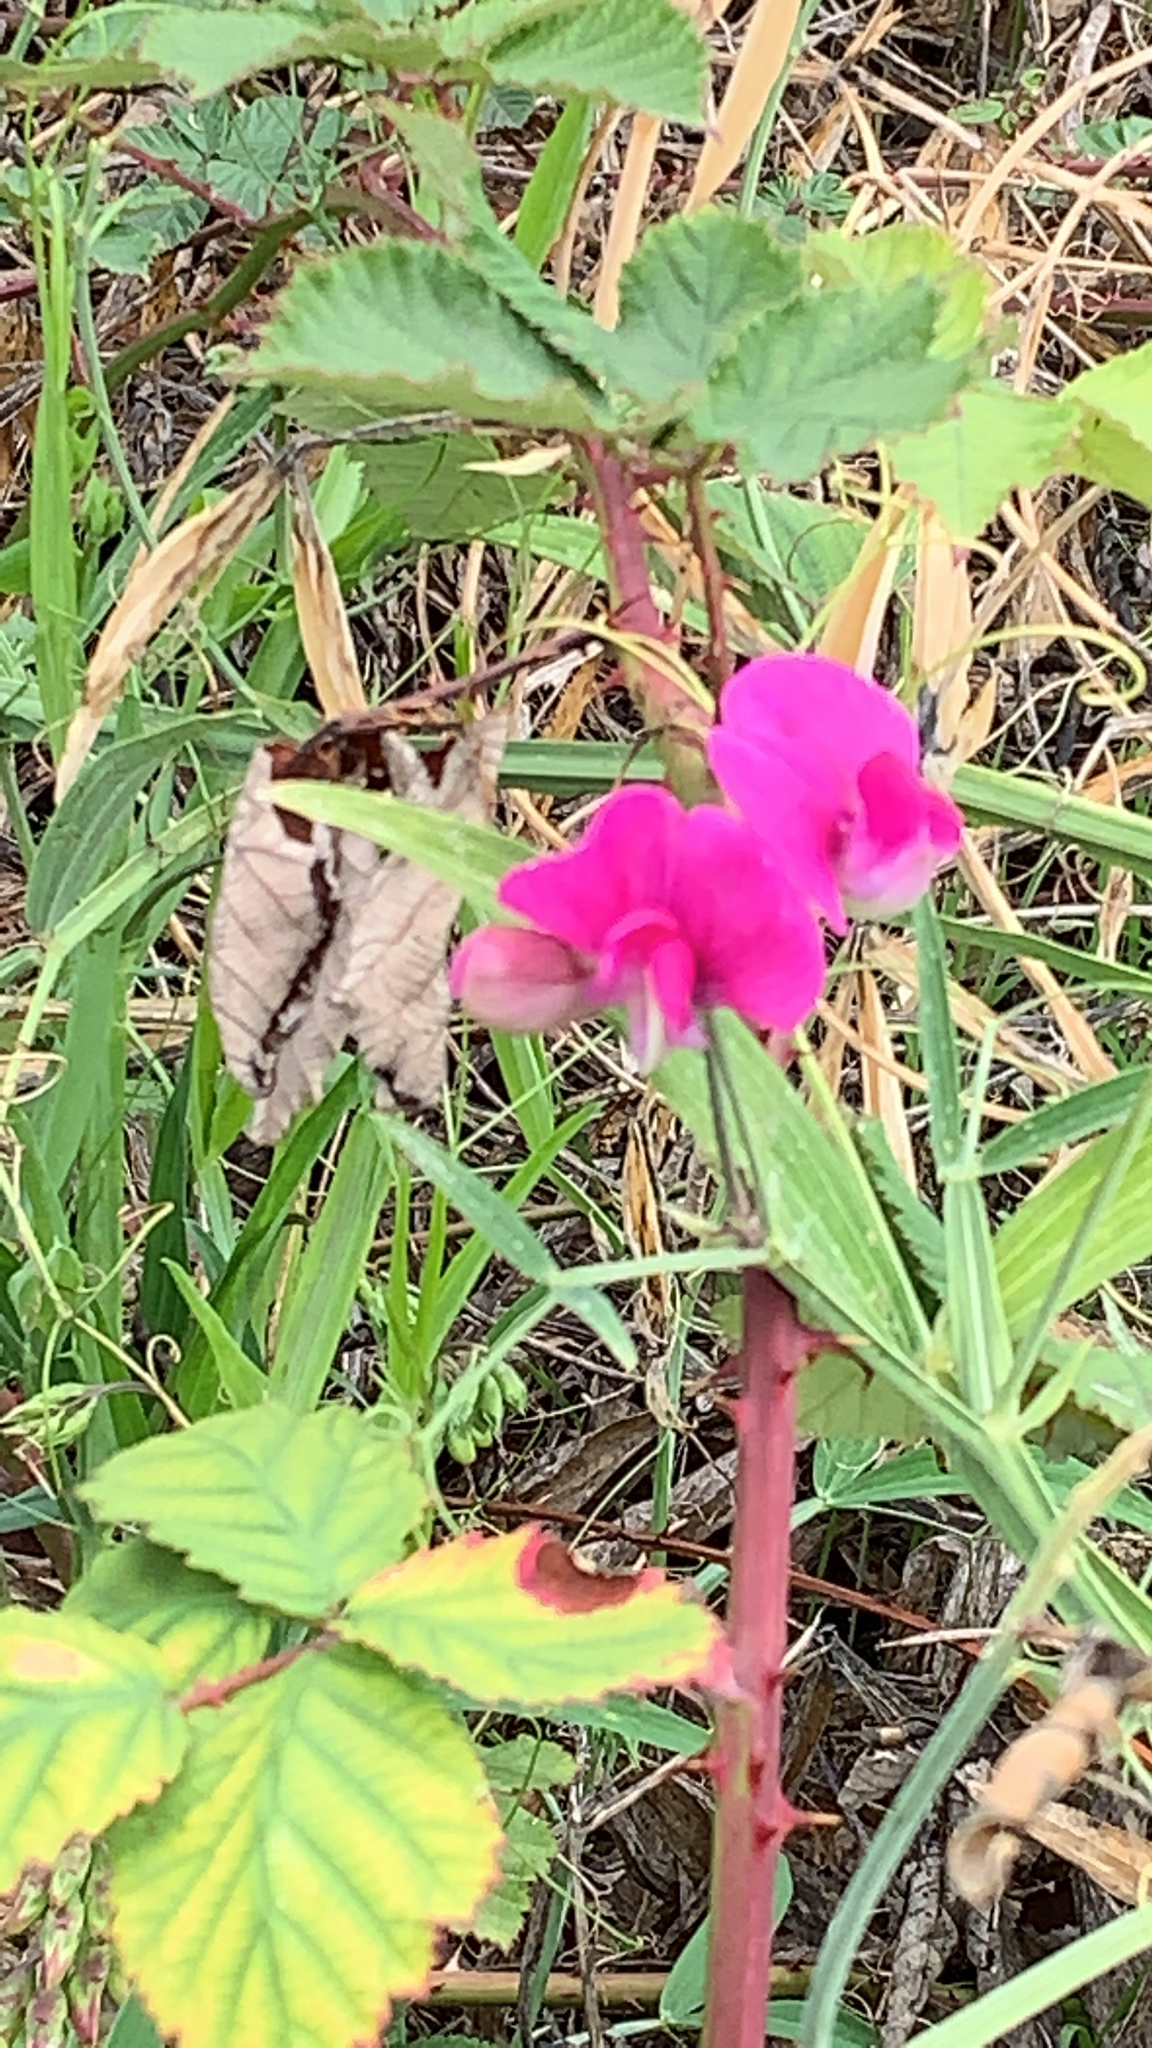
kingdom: Plantae
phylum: Tracheophyta
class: Magnoliopsida
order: Fabales
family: Fabaceae
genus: Lathyrus
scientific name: Lathyrus latifolius
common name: Perennial pea
